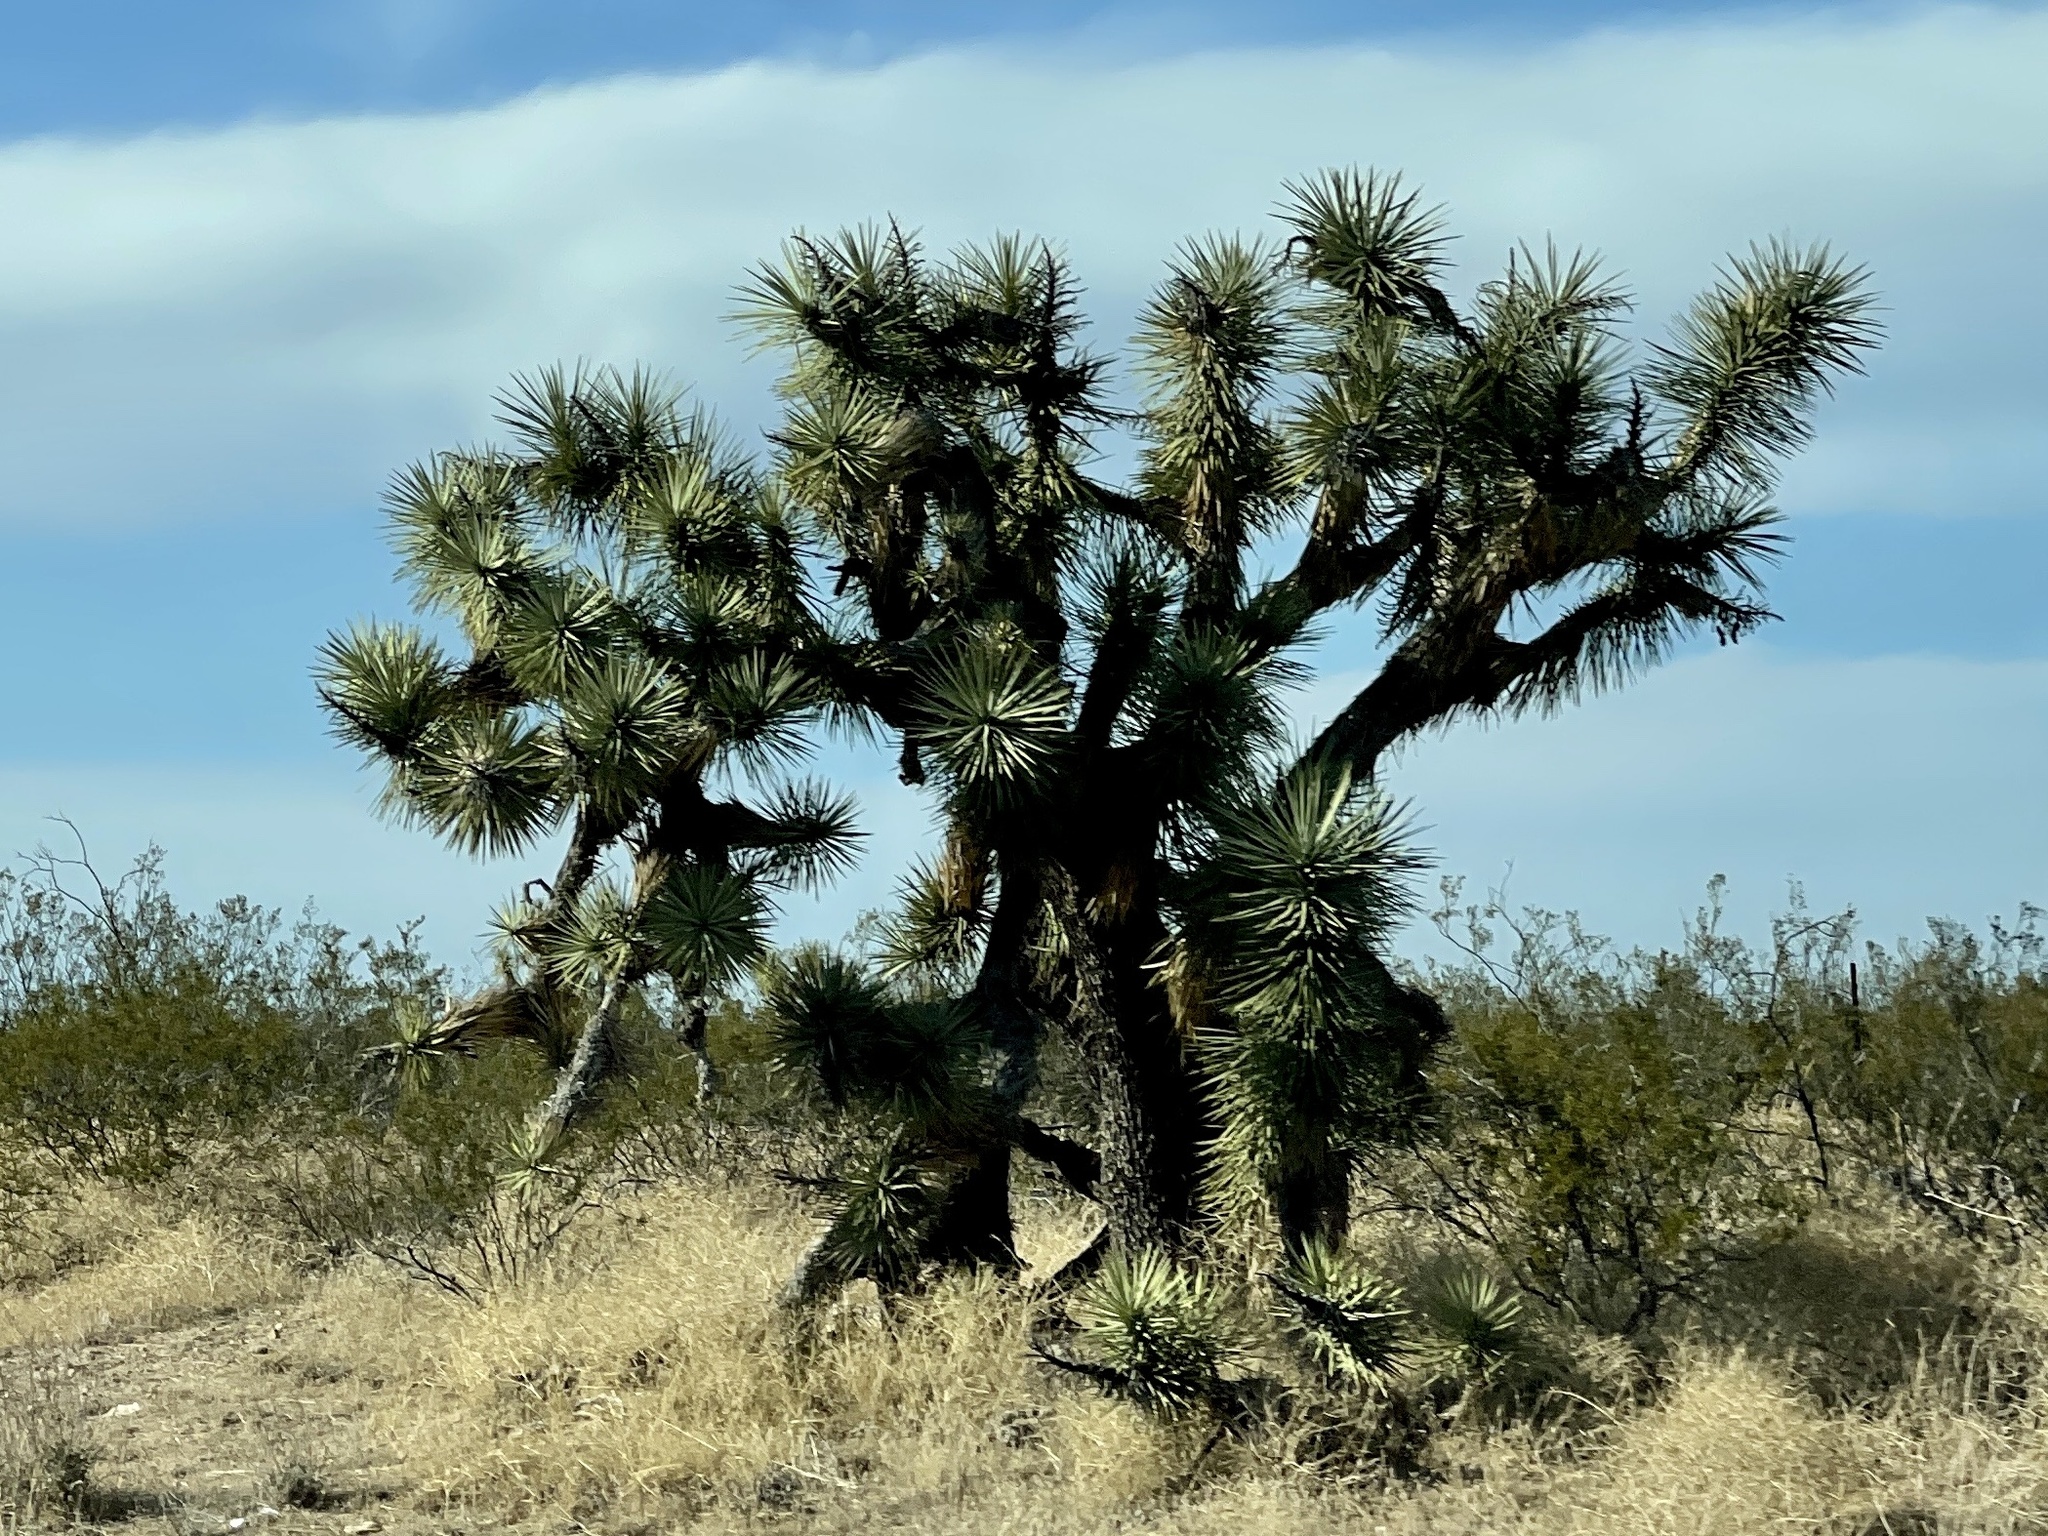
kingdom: Plantae
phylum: Tracheophyta
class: Liliopsida
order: Asparagales
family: Asparagaceae
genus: Yucca
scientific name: Yucca brevifolia
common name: Joshua tree
